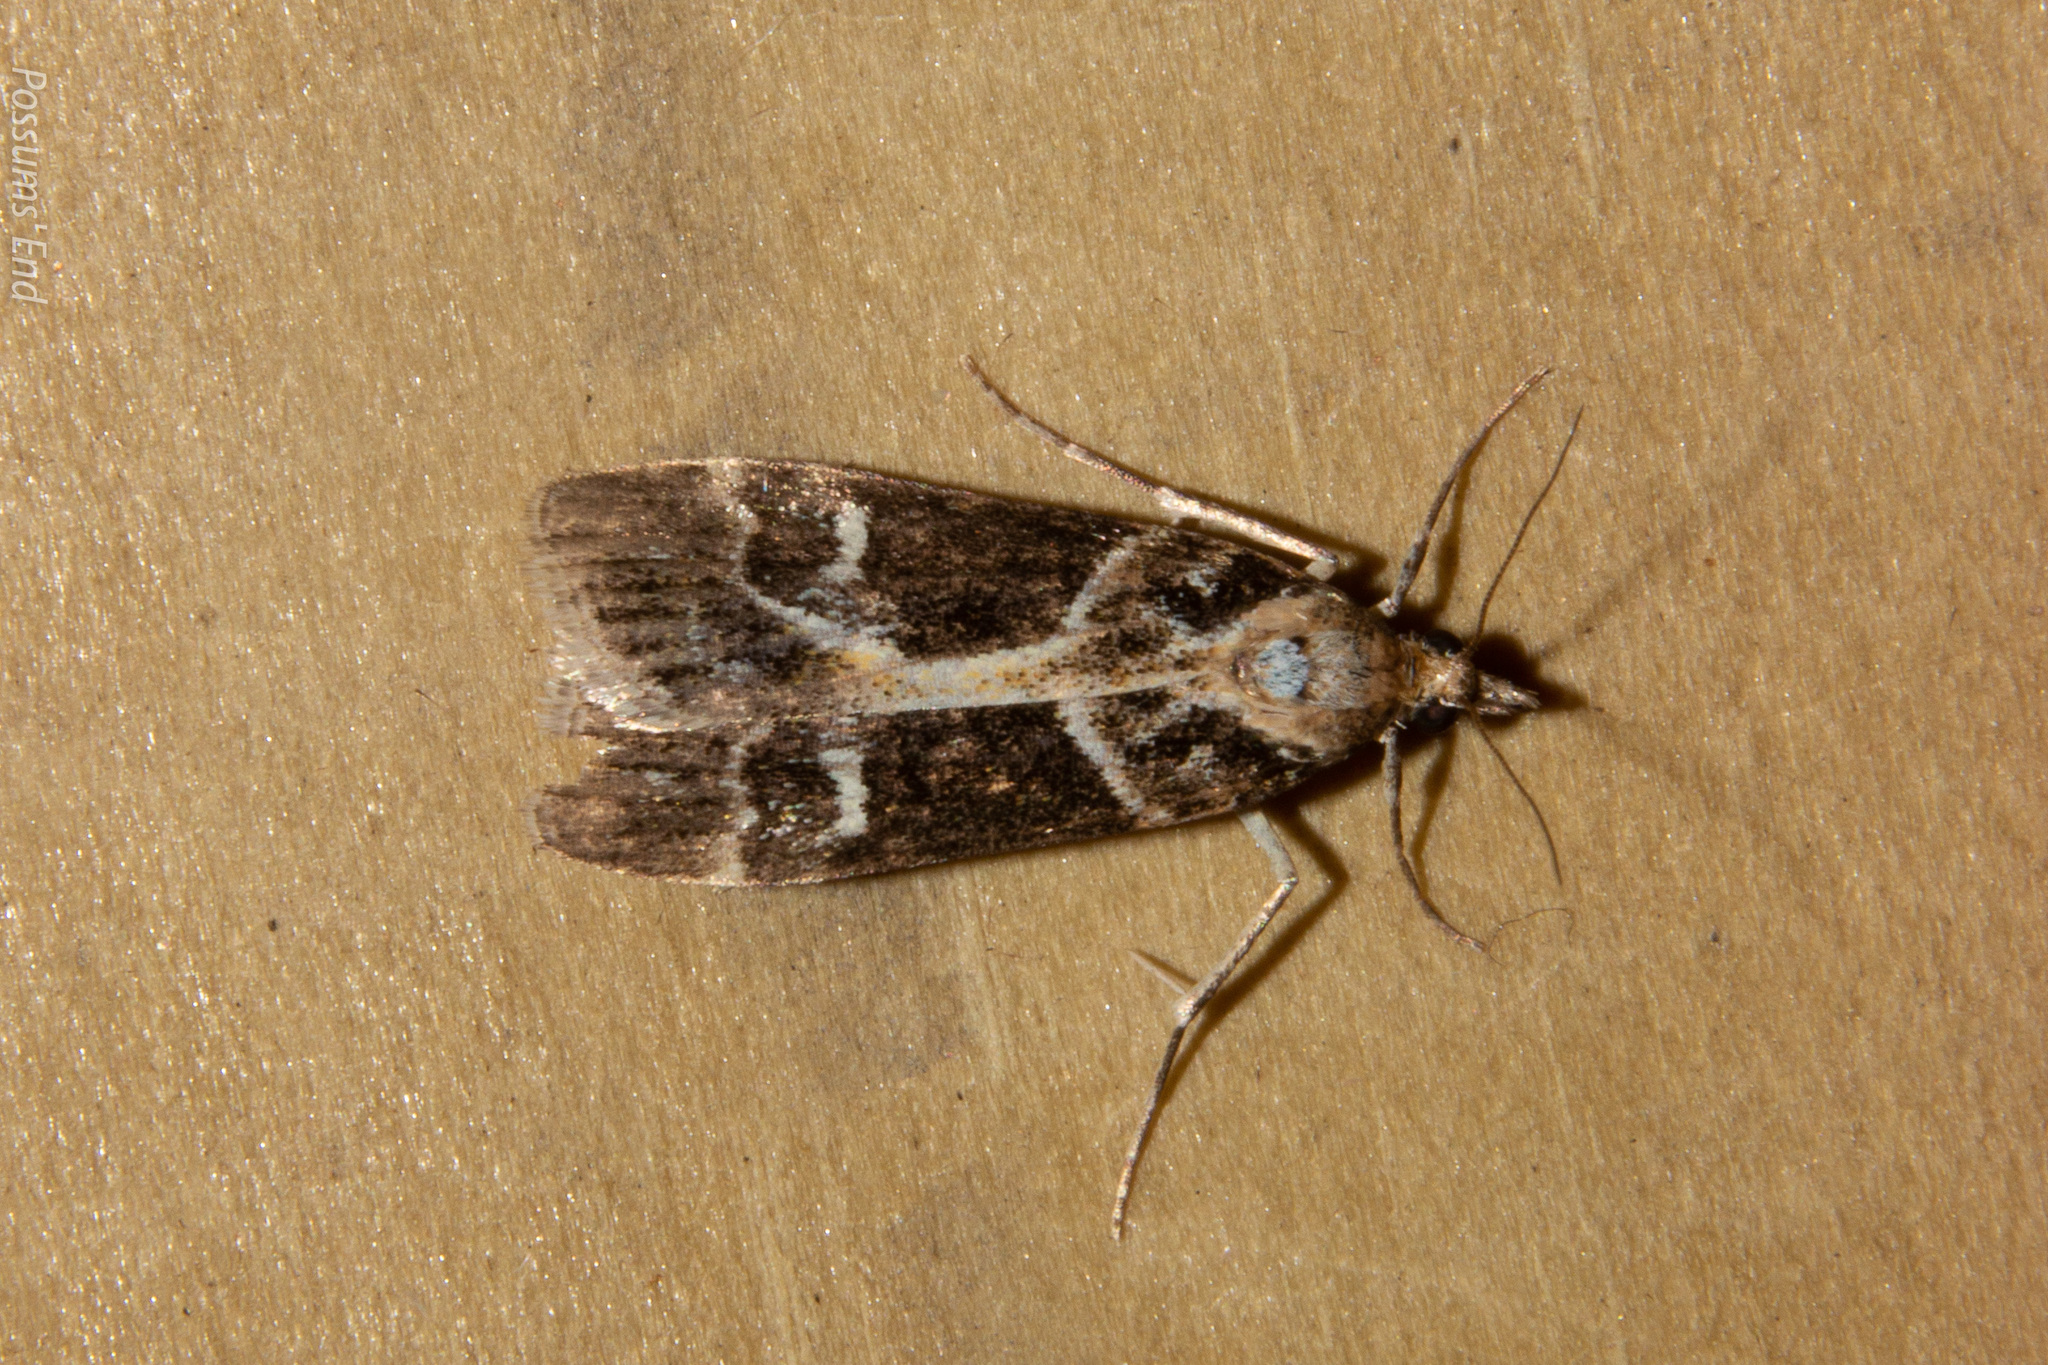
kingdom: Animalia
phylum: Arthropoda
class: Insecta
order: Lepidoptera
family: Crambidae
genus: Eudonia
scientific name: Eudonia melanaegis
